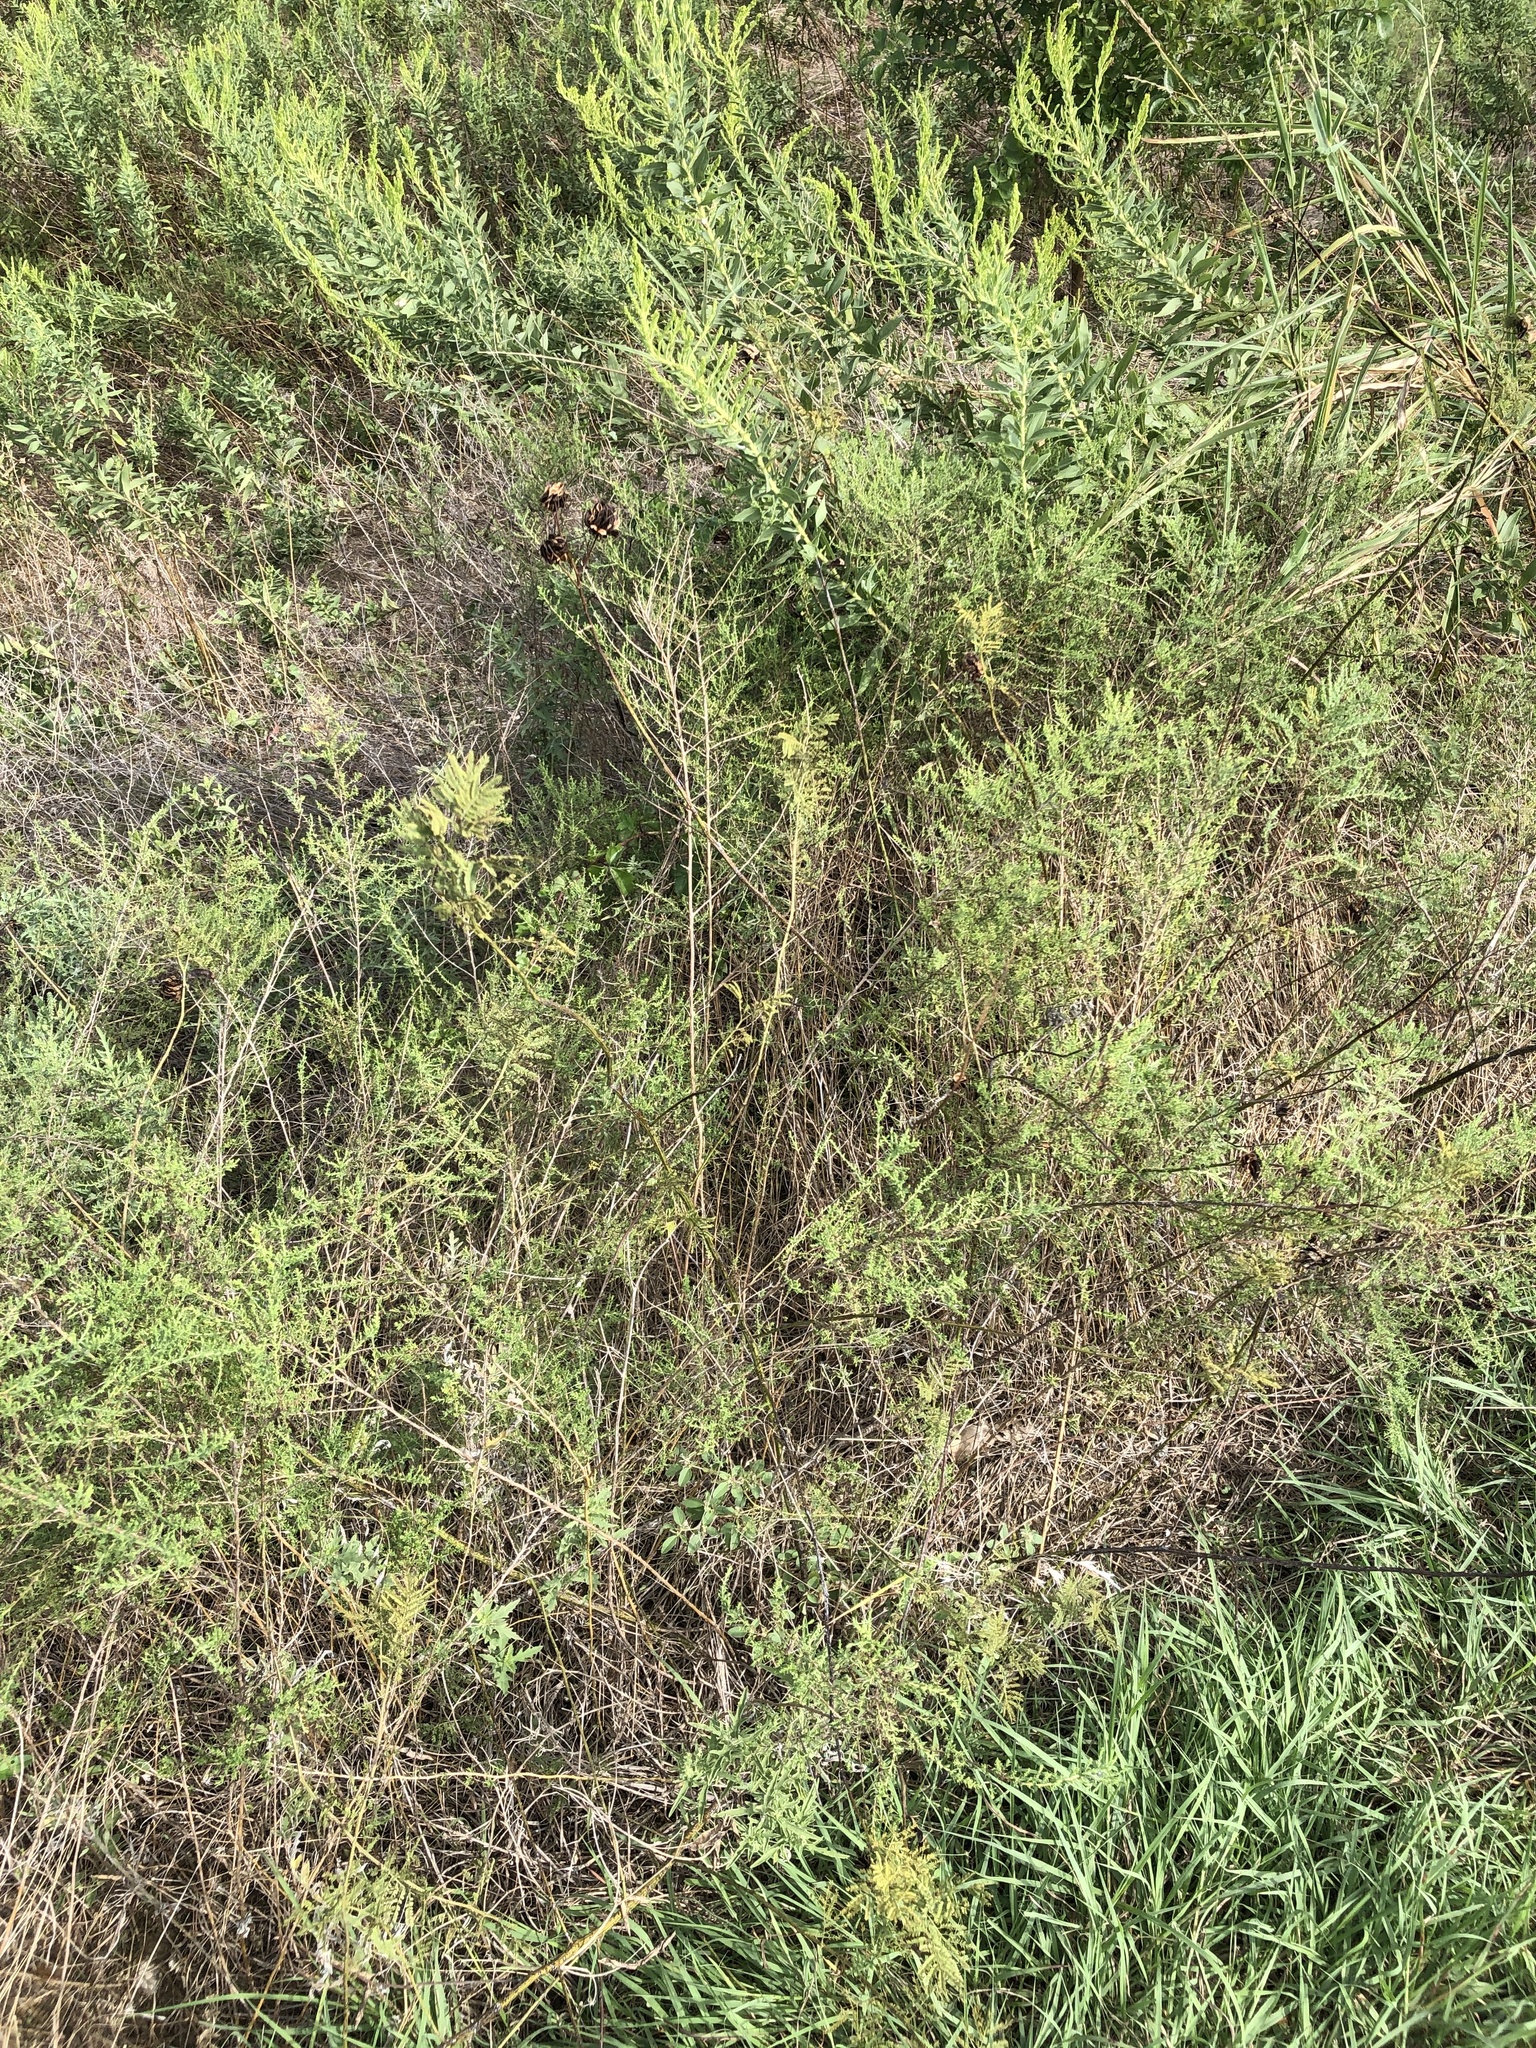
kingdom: Plantae
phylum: Tracheophyta
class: Magnoliopsida
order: Fabales
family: Fabaceae
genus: Desmanthus
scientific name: Desmanthus illinoensis
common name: Illinois bundle-flower
